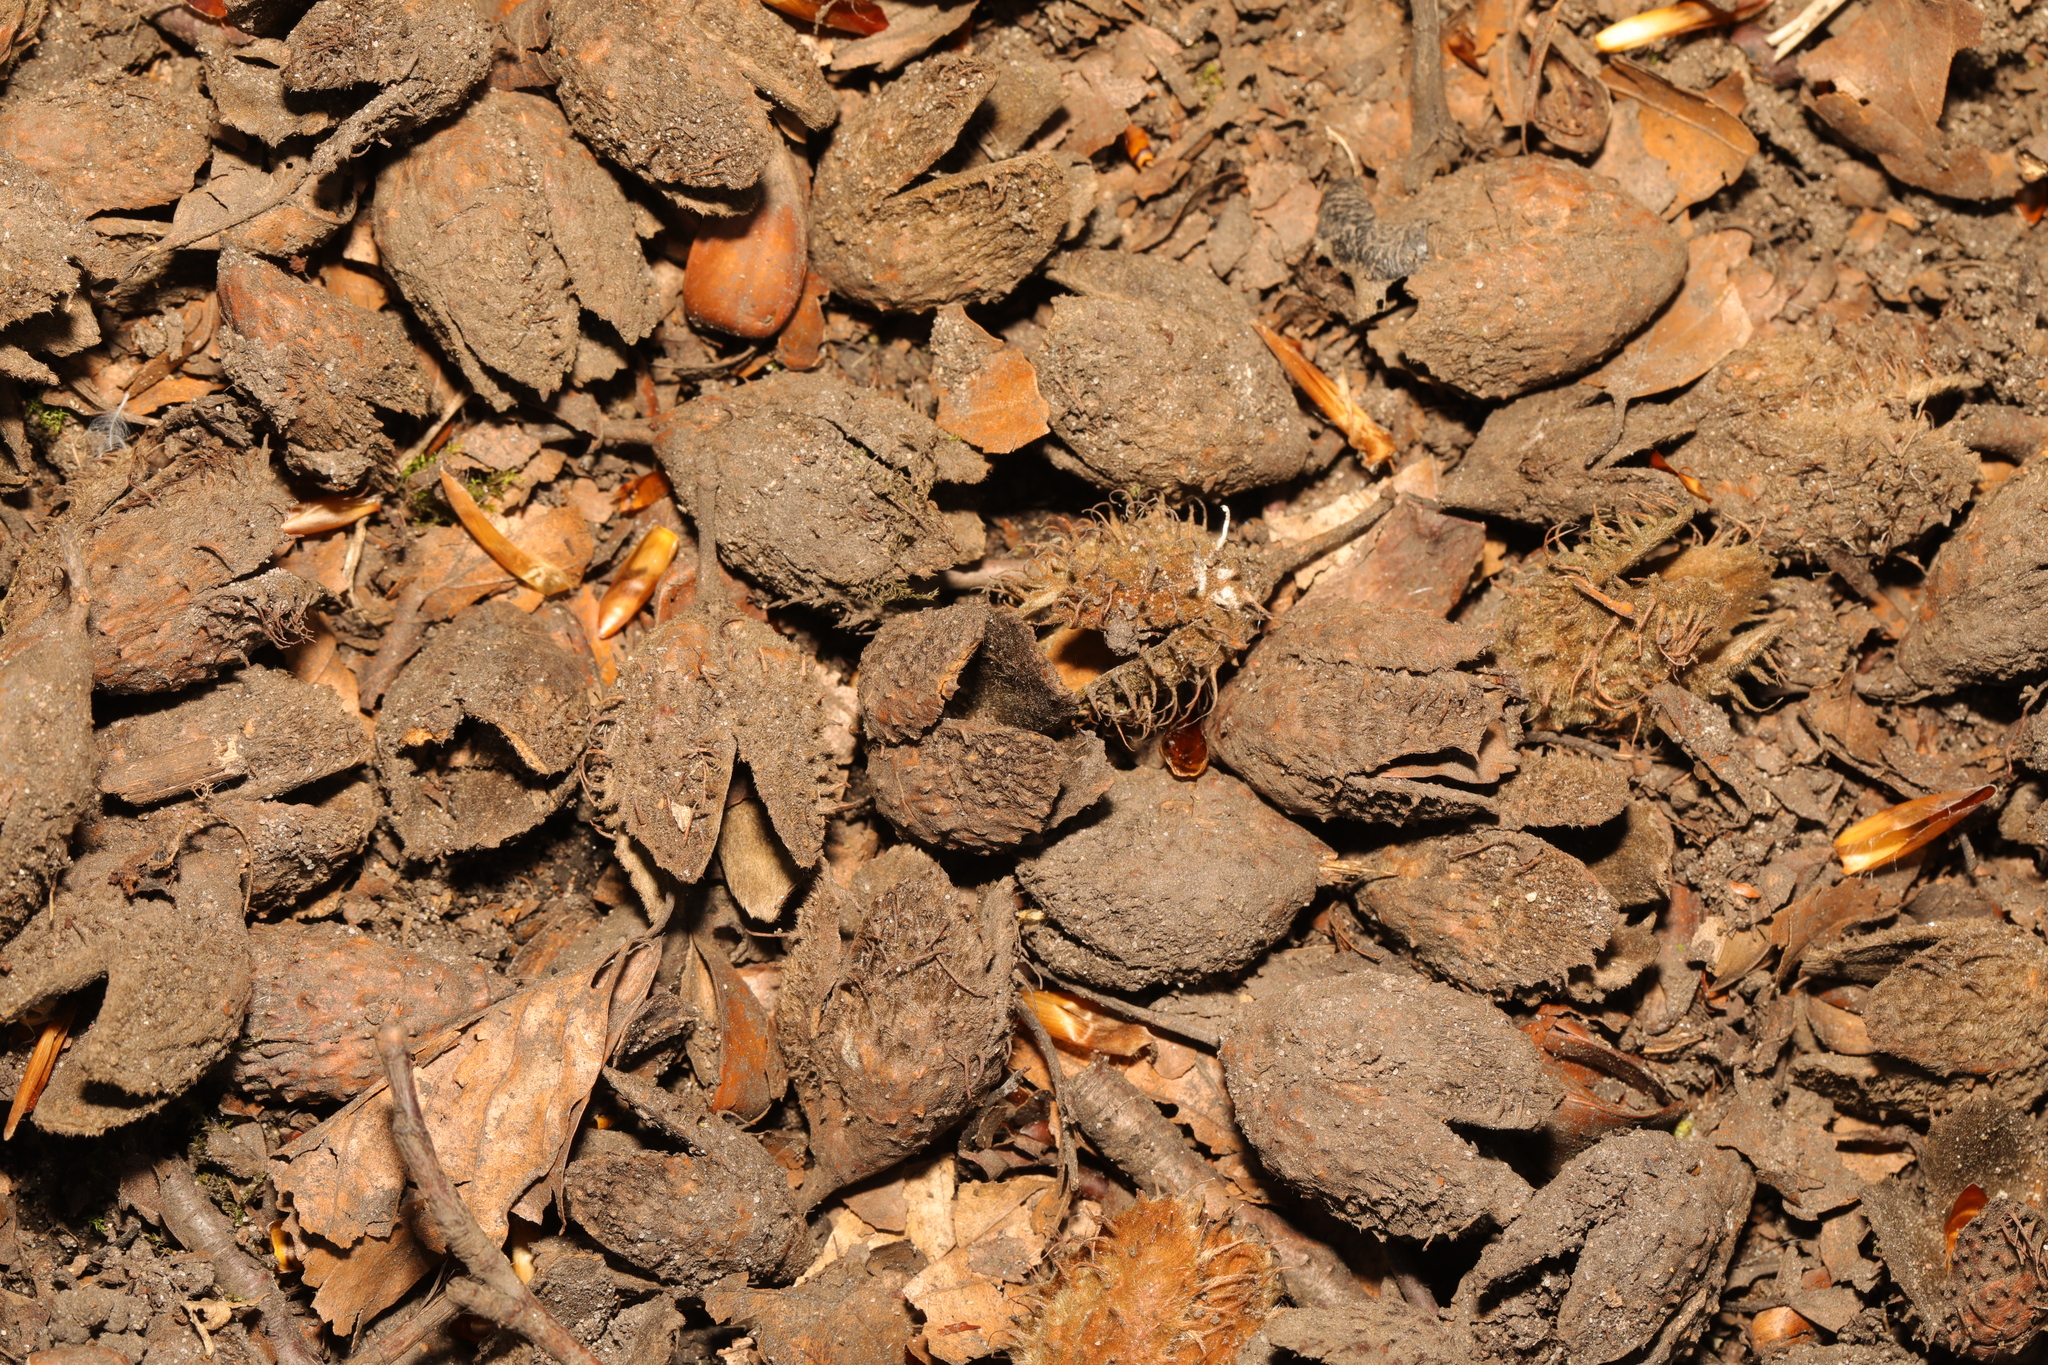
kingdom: Plantae
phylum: Tracheophyta
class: Magnoliopsida
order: Fagales
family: Fagaceae
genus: Fagus
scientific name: Fagus sylvatica
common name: Beech
